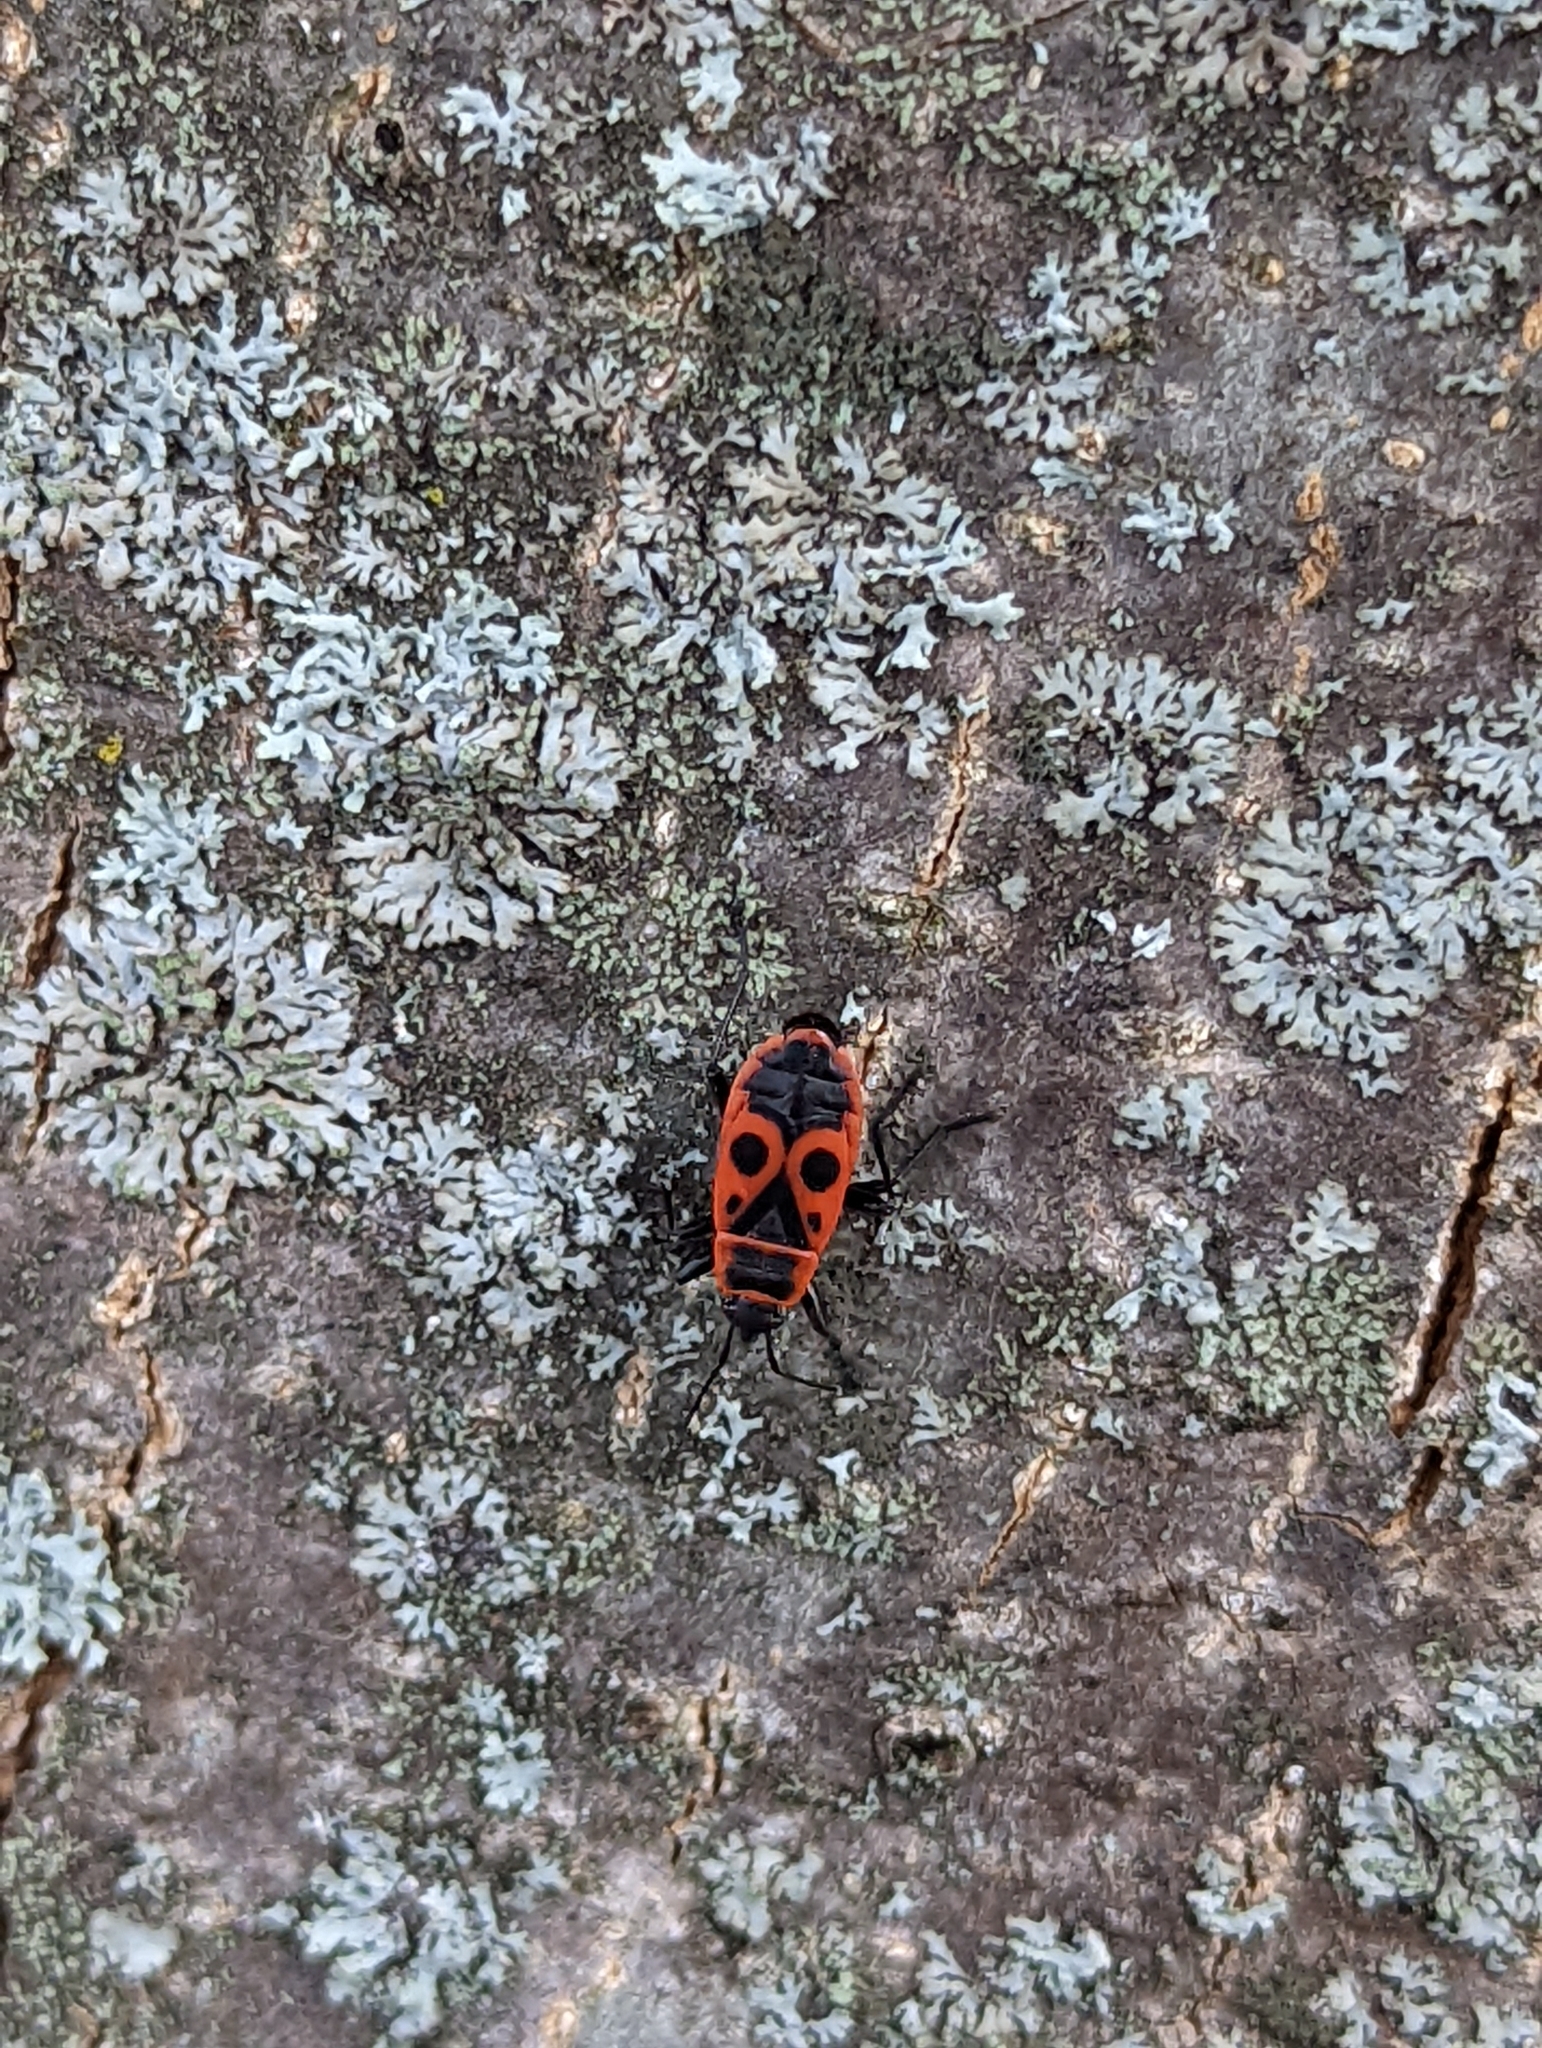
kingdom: Animalia
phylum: Arthropoda
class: Insecta
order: Hemiptera
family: Pyrrhocoridae
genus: Pyrrhocoris
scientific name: Pyrrhocoris apterus
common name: Firebug
